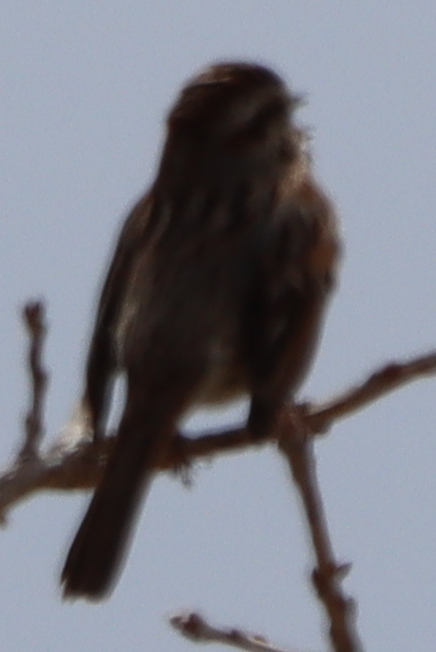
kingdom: Animalia
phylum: Chordata
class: Aves
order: Passeriformes
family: Passerellidae
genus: Melospiza
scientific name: Melospiza melodia
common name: Song sparrow
